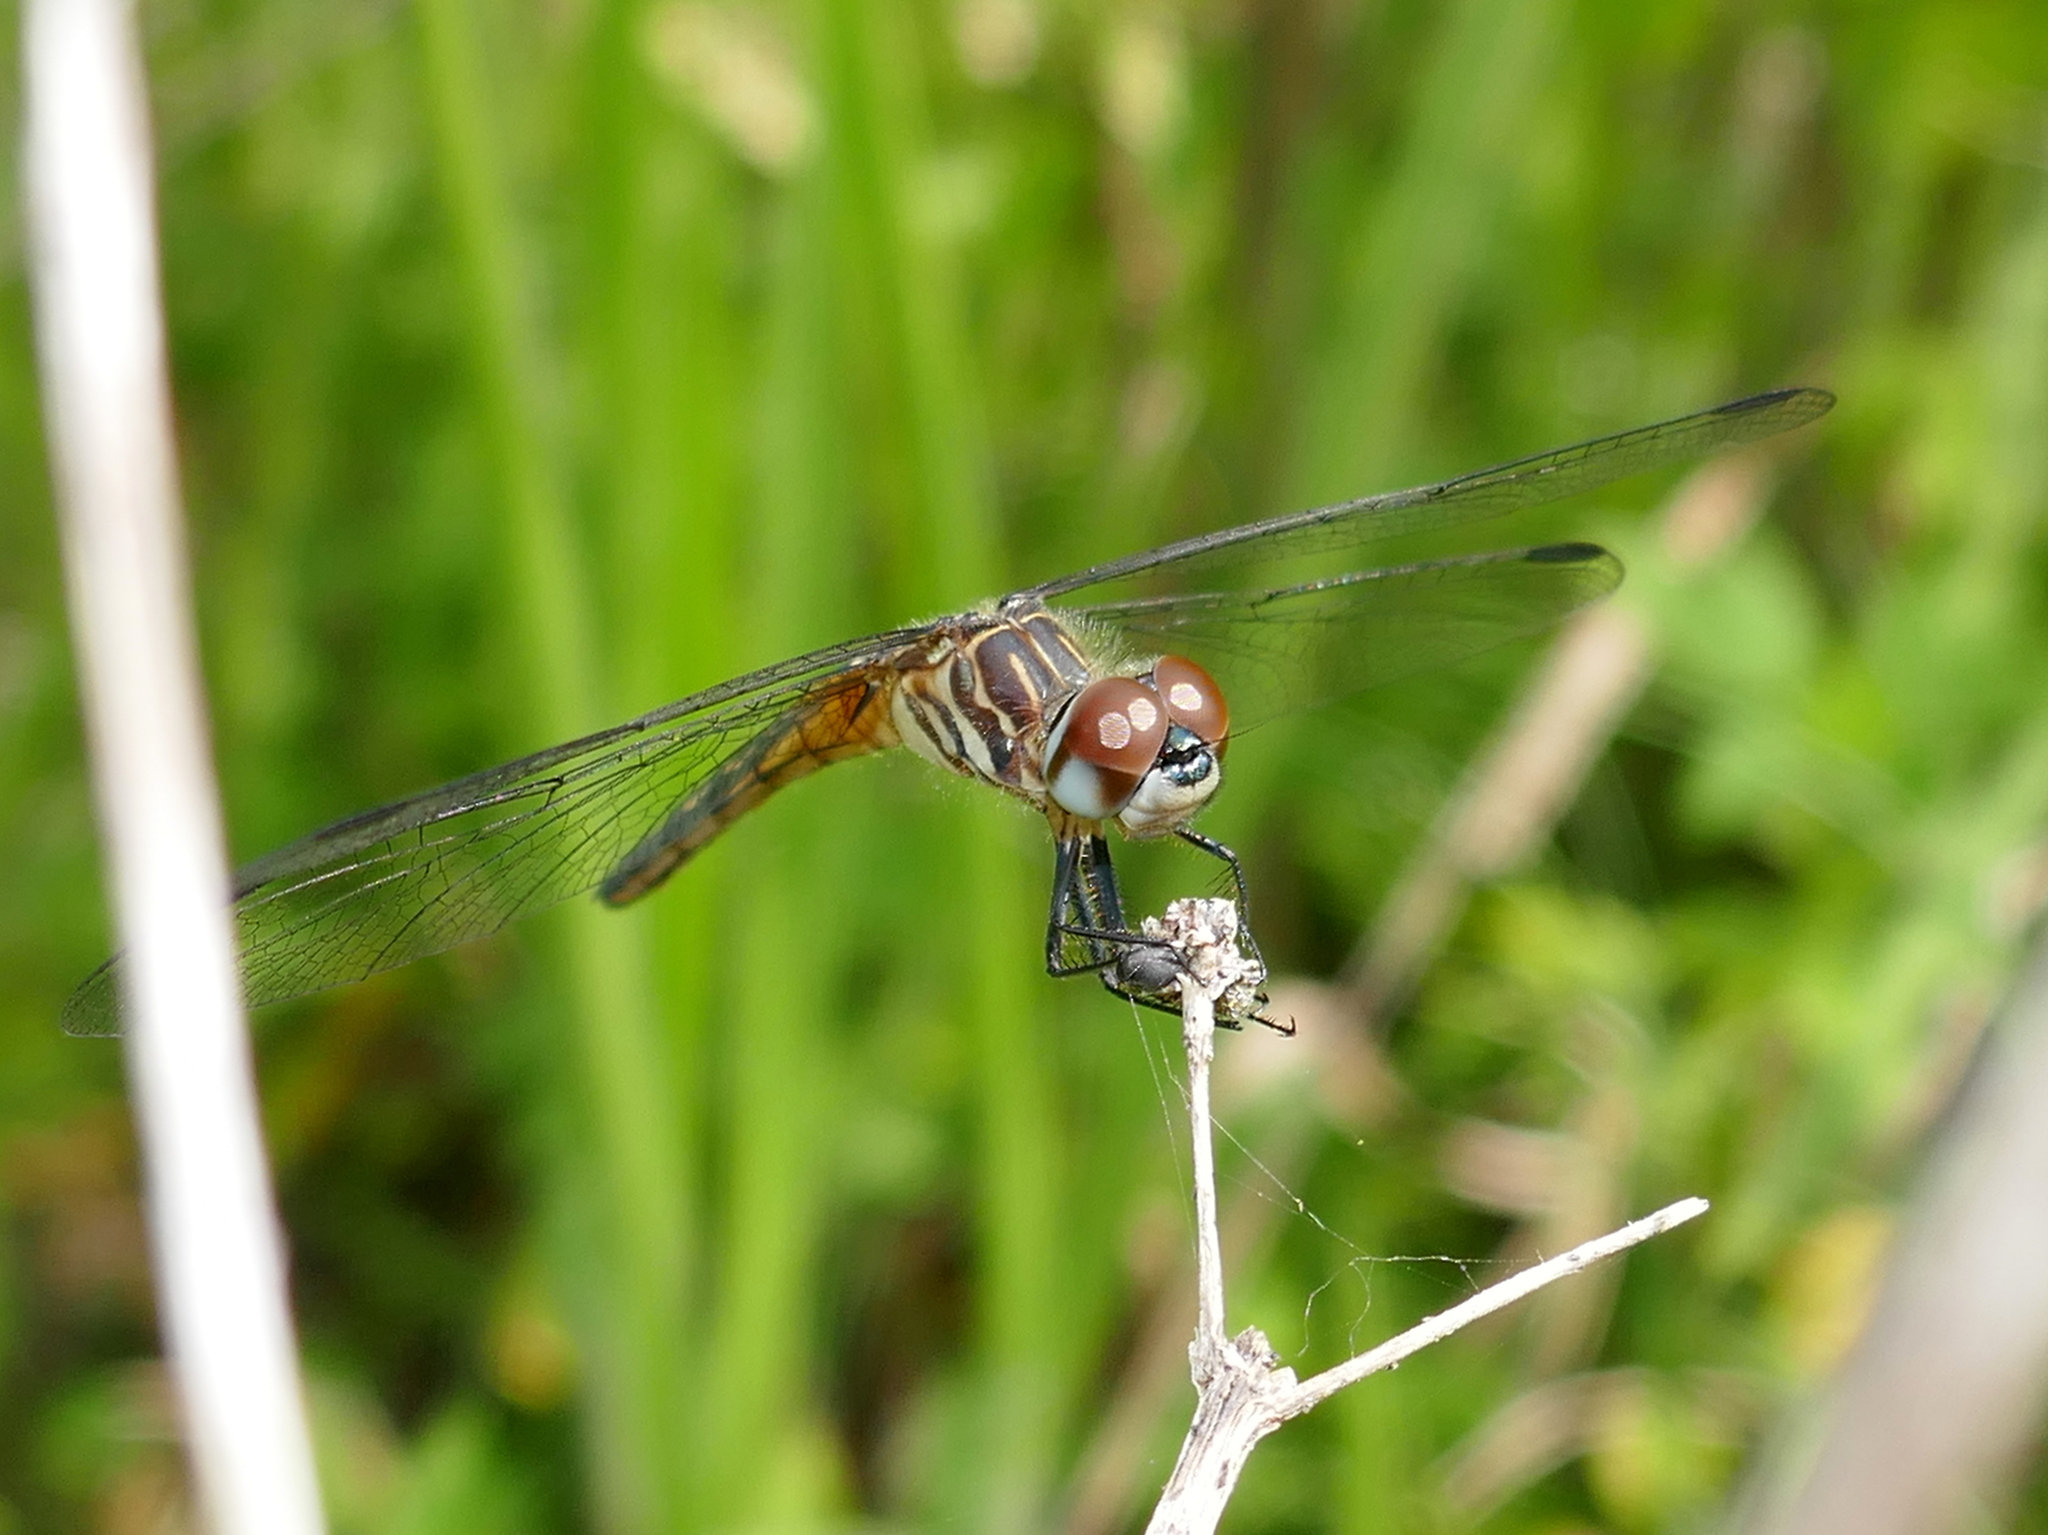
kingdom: Animalia
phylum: Arthropoda
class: Insecta
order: Odonata
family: Libellulidae
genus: Pachydiplax
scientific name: Pachydiplax longipennis
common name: Blue dasher
